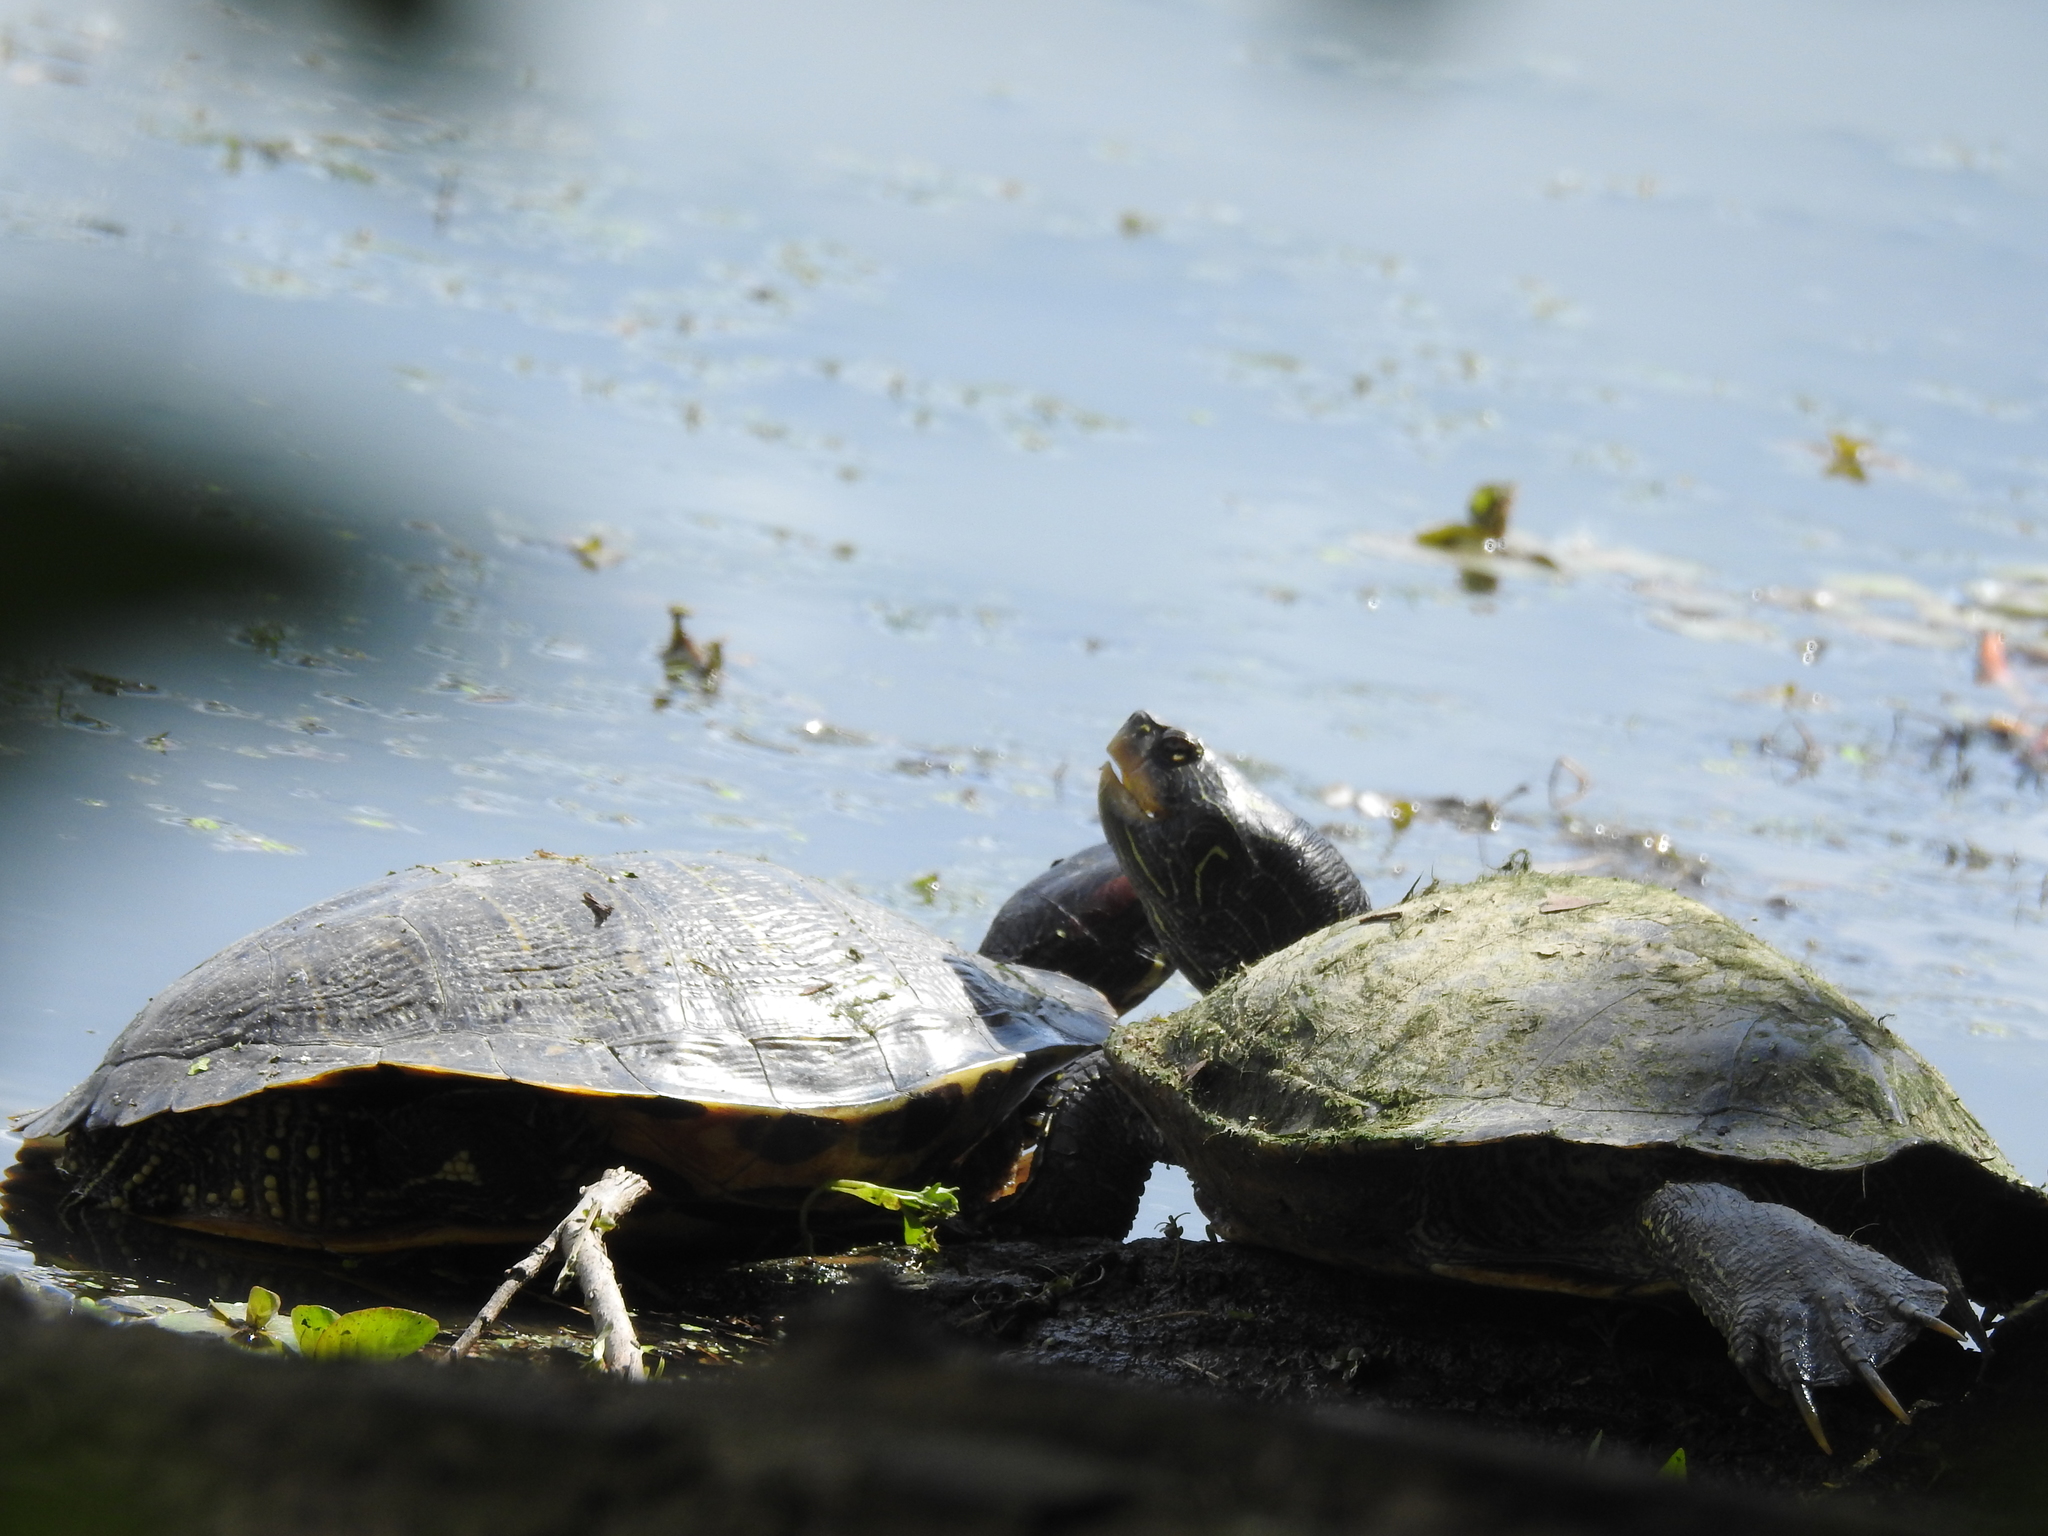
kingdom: Animalia
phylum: Chordata
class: Testudines
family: Emydidae
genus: Graptemys
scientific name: Graptemys geographica
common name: Common map turtle
